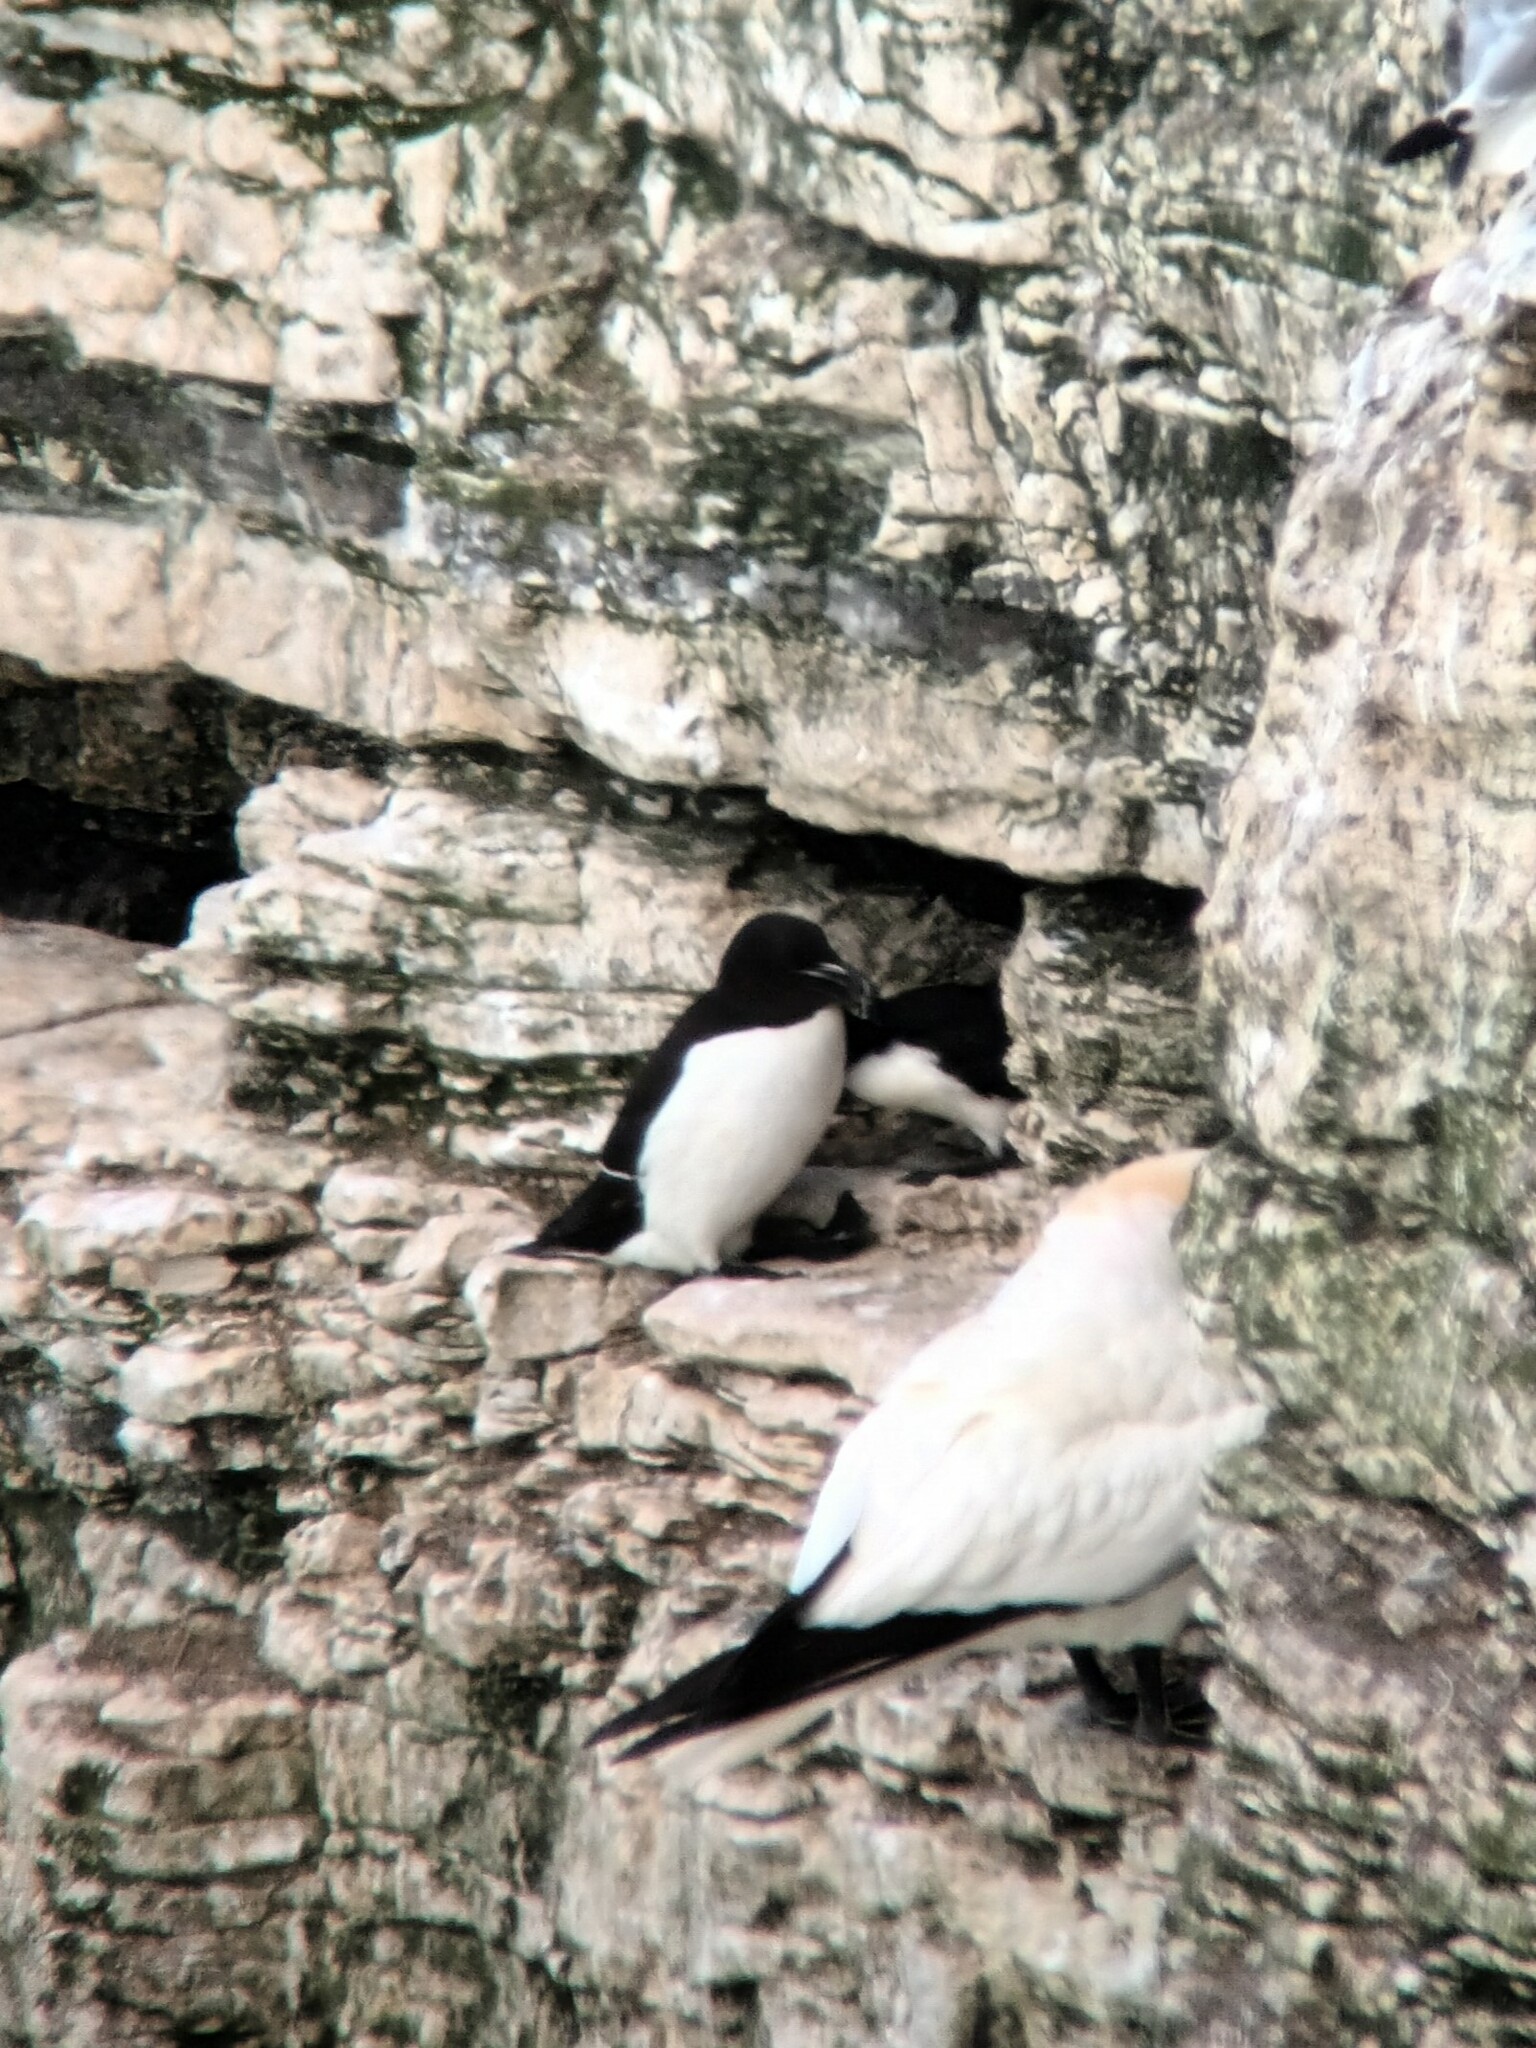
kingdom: Animalia
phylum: Chordata
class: Aves
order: Charadriiformes
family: Alcidae
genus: Alca
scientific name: Alca torda
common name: Razorbill
